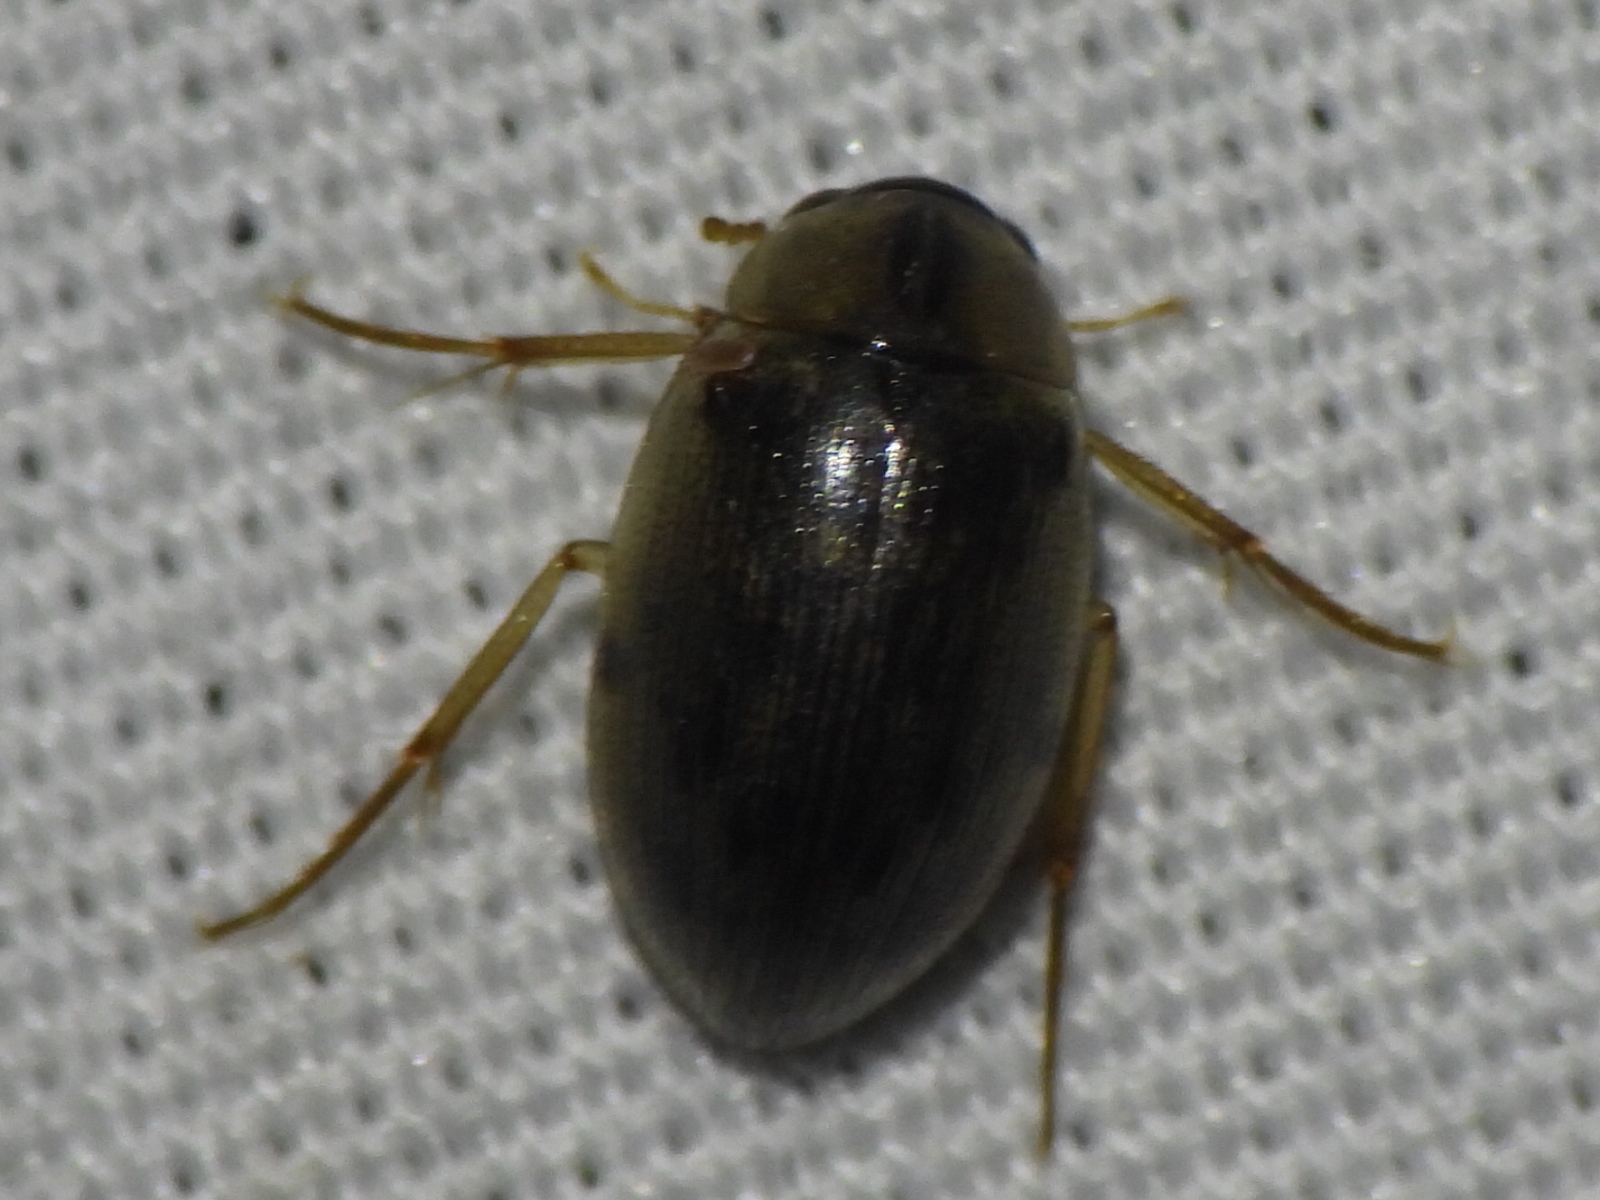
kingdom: Animalia
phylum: Arthropoda
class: Insecta
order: Coleoptera
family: Hydrophilidae
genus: Berosus
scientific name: Berosus
